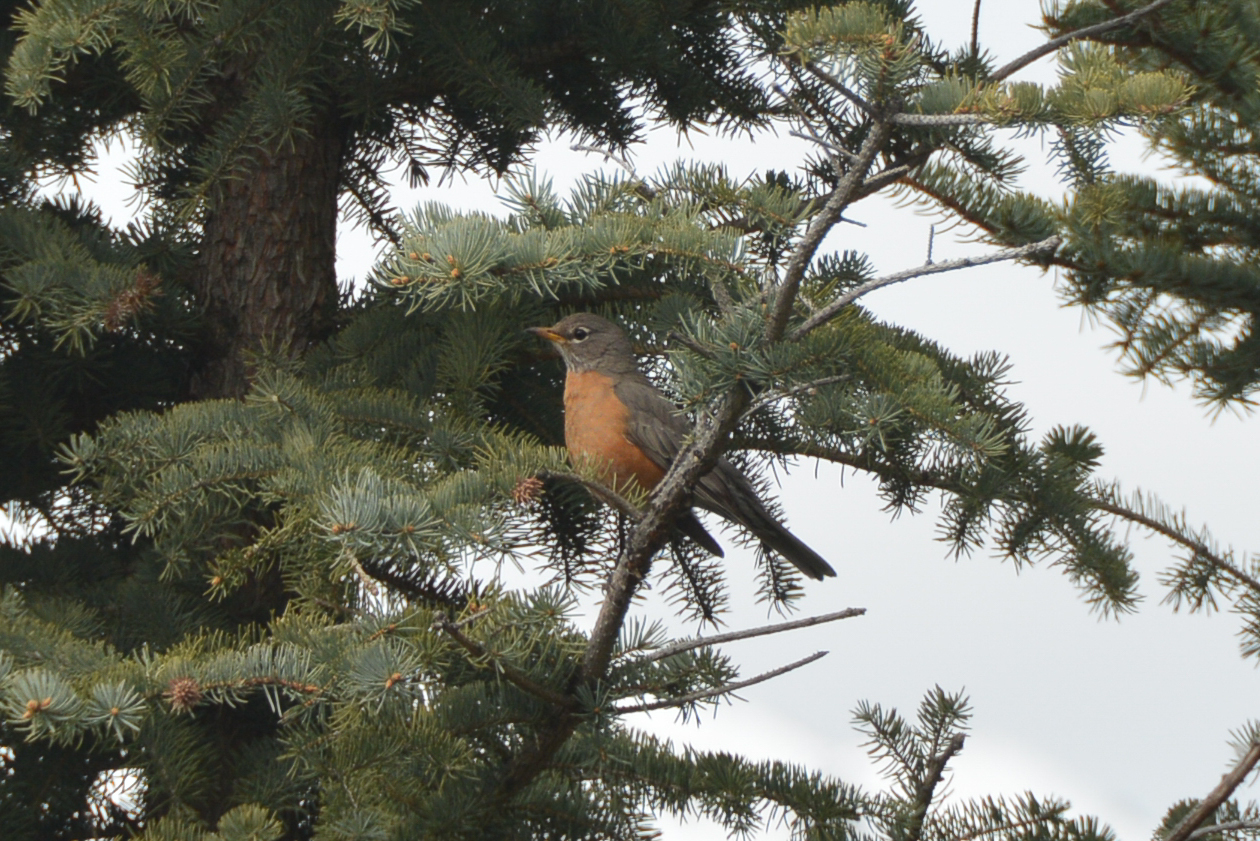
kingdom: Animalia
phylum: Chordata
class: Aves
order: Passeriformes
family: Turdidae
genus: Turdus
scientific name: Turdus migratorius
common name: American robin
